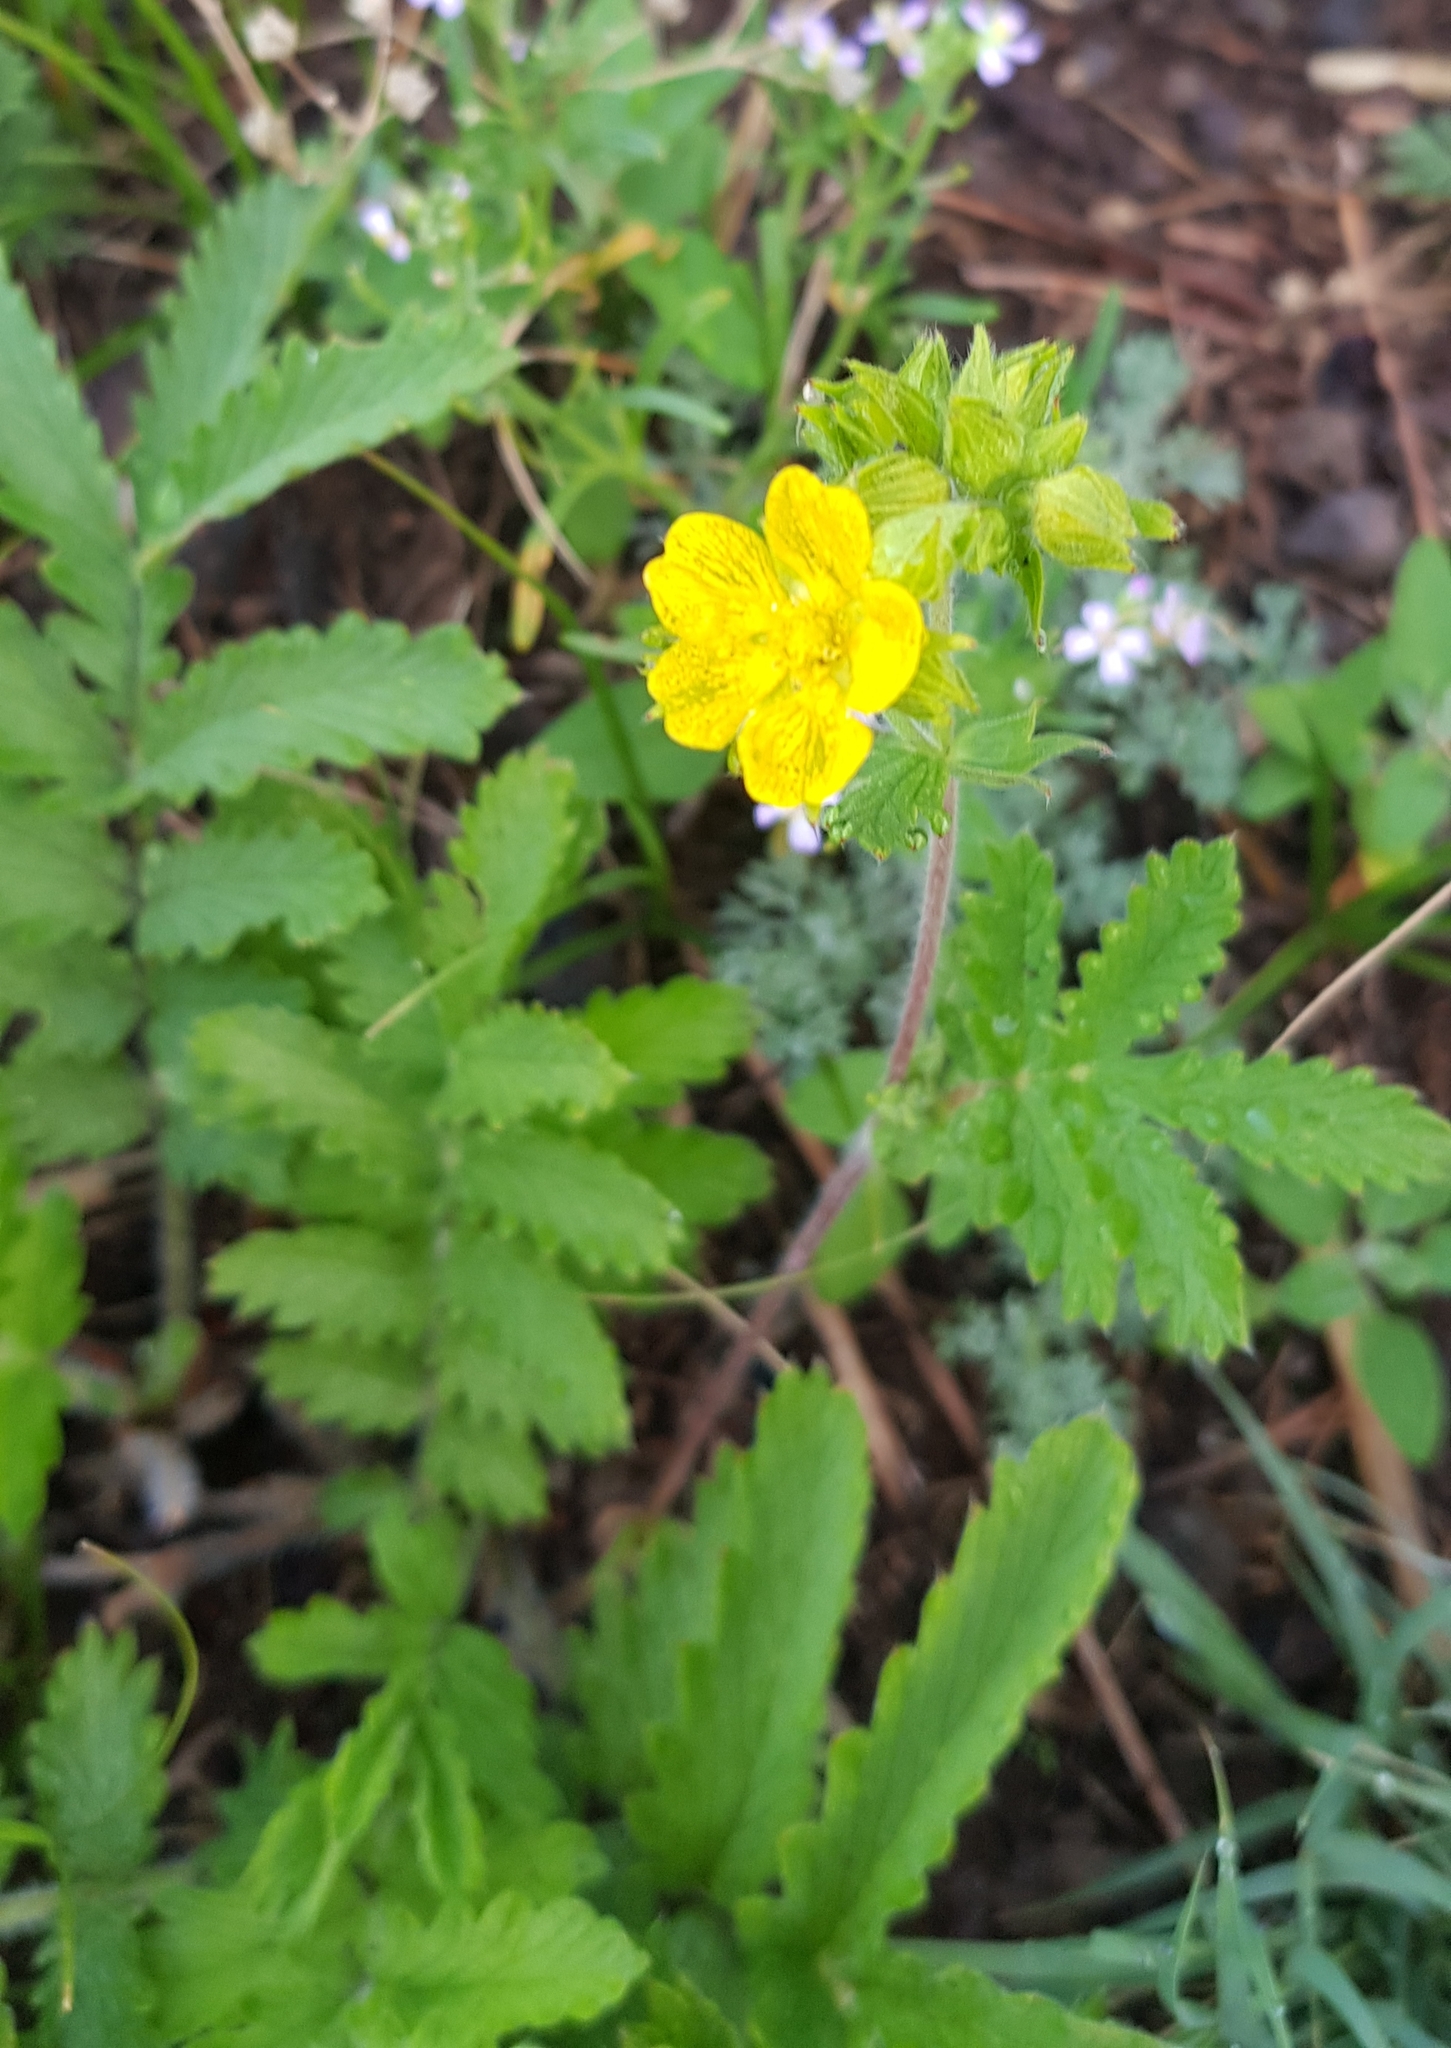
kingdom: Plantae
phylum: Tracheophyta
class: Magnoliopsida
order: Rosales
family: Rosaceae
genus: Potentilla
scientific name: Potentilla tanacetifolia
